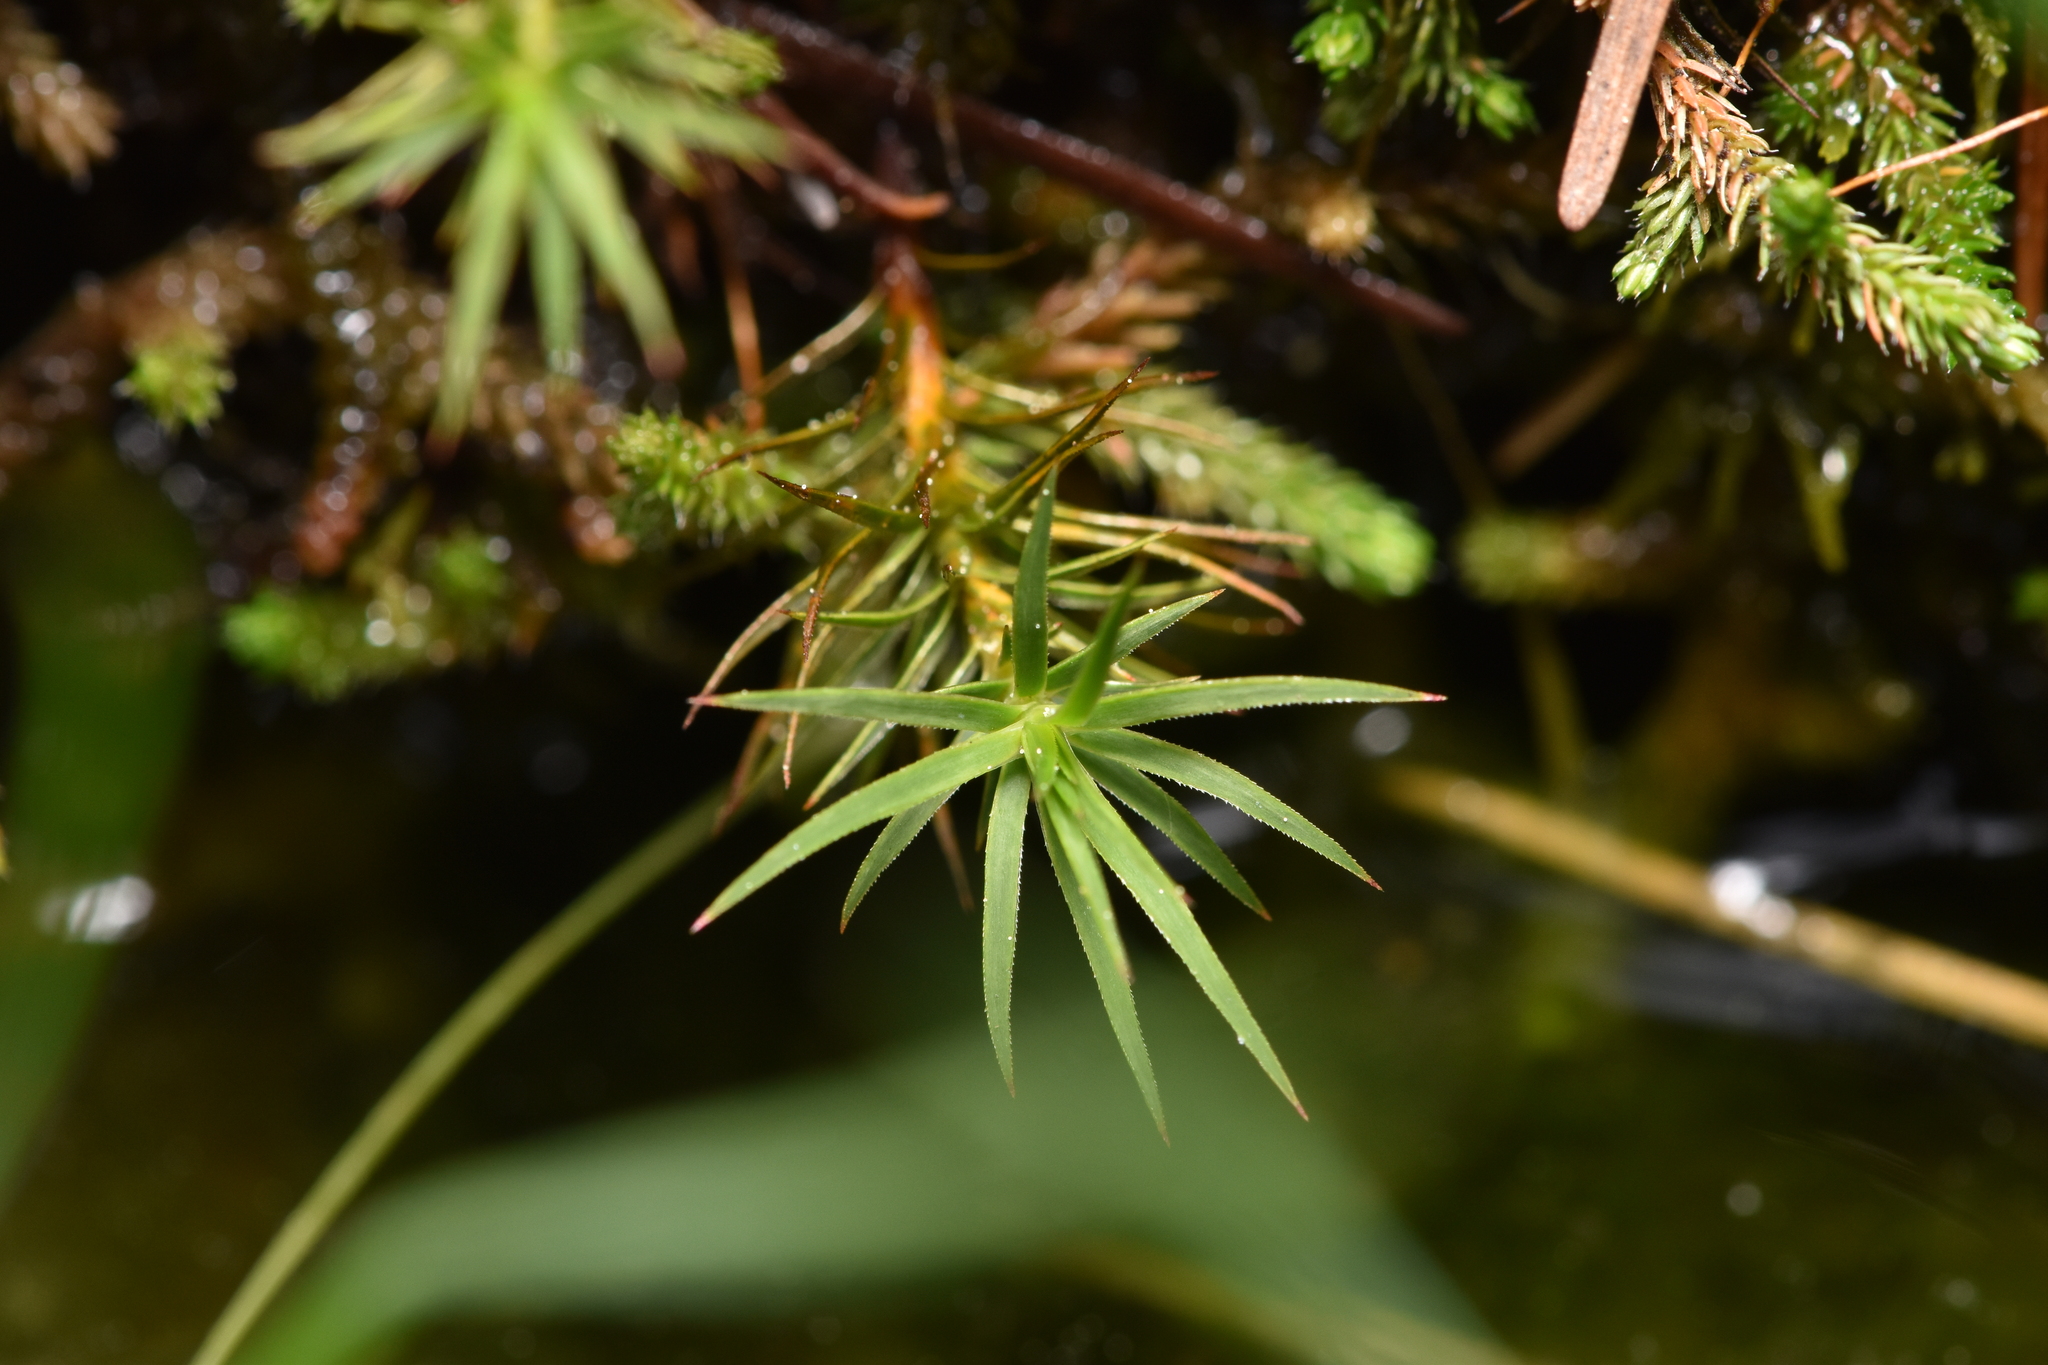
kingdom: Plantae
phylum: Bryophyta
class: Polytrichopsida
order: Polytrichales
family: Polytrichaceae
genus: Polytrichum
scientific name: Polytrichum commune
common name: Common haircap
